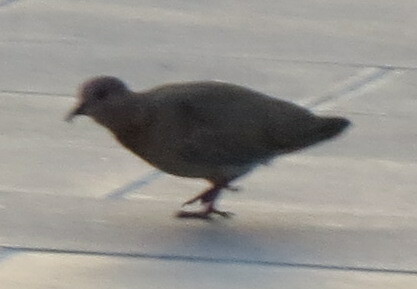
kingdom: Animalia
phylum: Chordata
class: Aves
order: Columbiformes
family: Columbidae
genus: Spilopelia
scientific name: Spilopelia senegalensis
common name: Laughing dove
